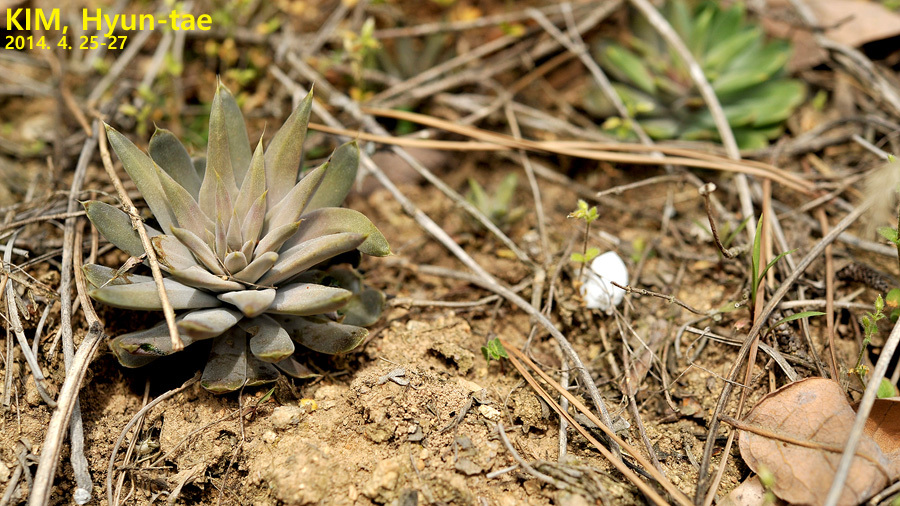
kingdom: Plantae
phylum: Tracheophyta
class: Magnoliopsida
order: Saxifragales
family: Crassulaceae
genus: Orostachys
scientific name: Orostachys japonica
